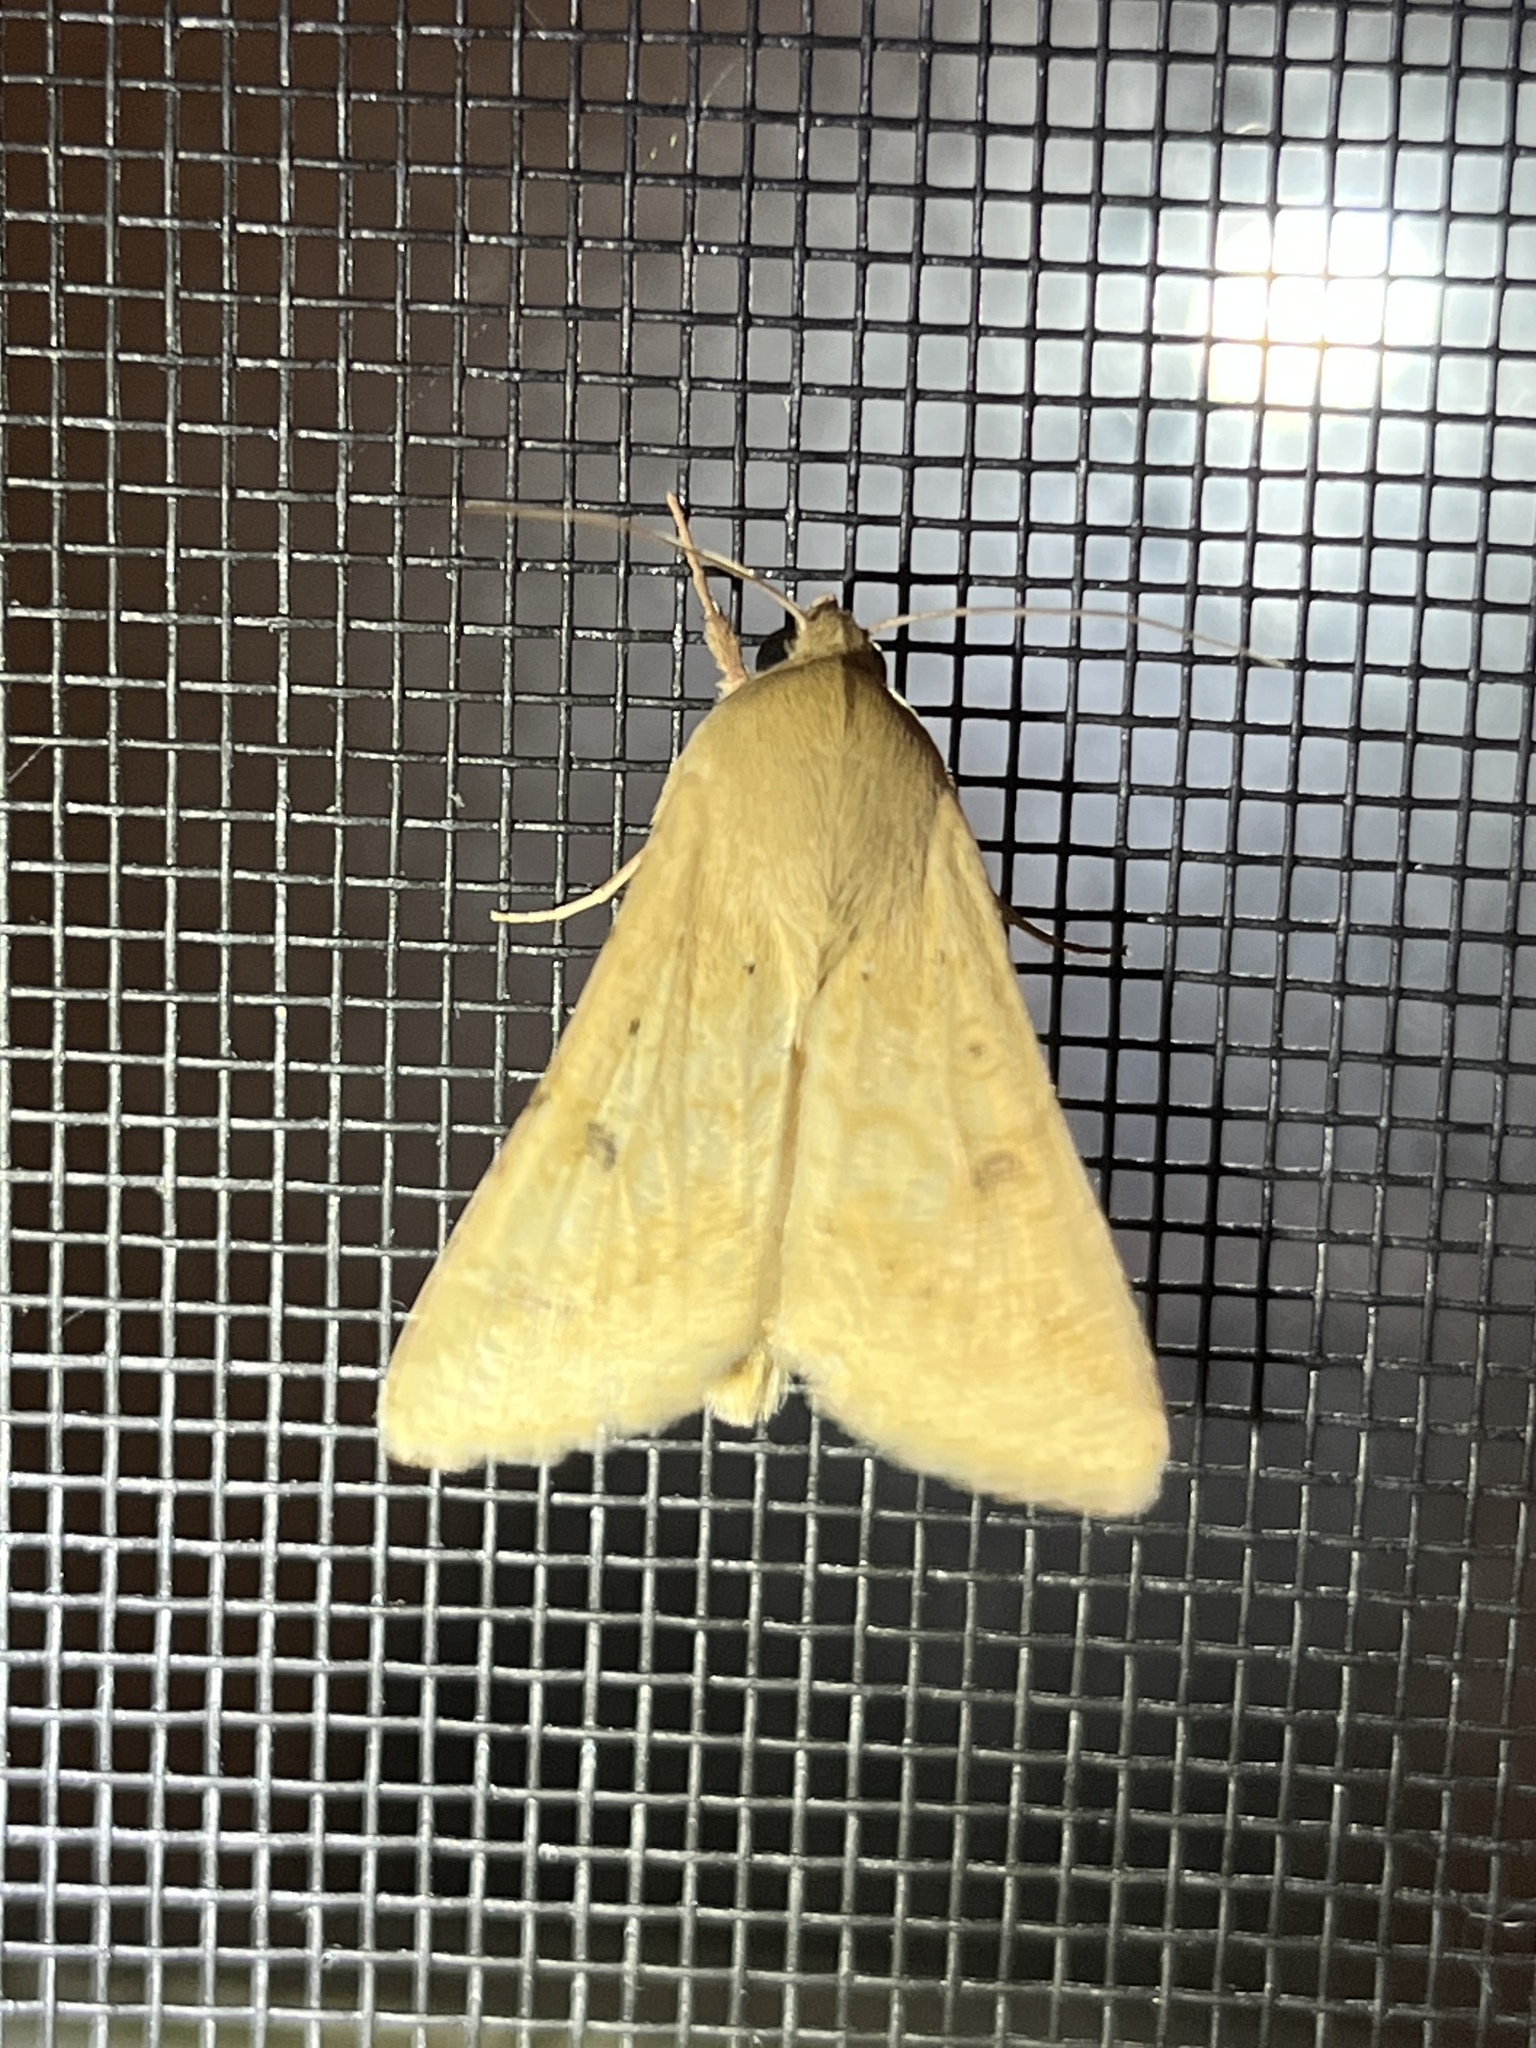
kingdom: Animalia
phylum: Arthropoda
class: Insecta
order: Lepidoptera
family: Noctuidae
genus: Helicoverpa
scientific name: Helicoverpa zea
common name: Bollworm
